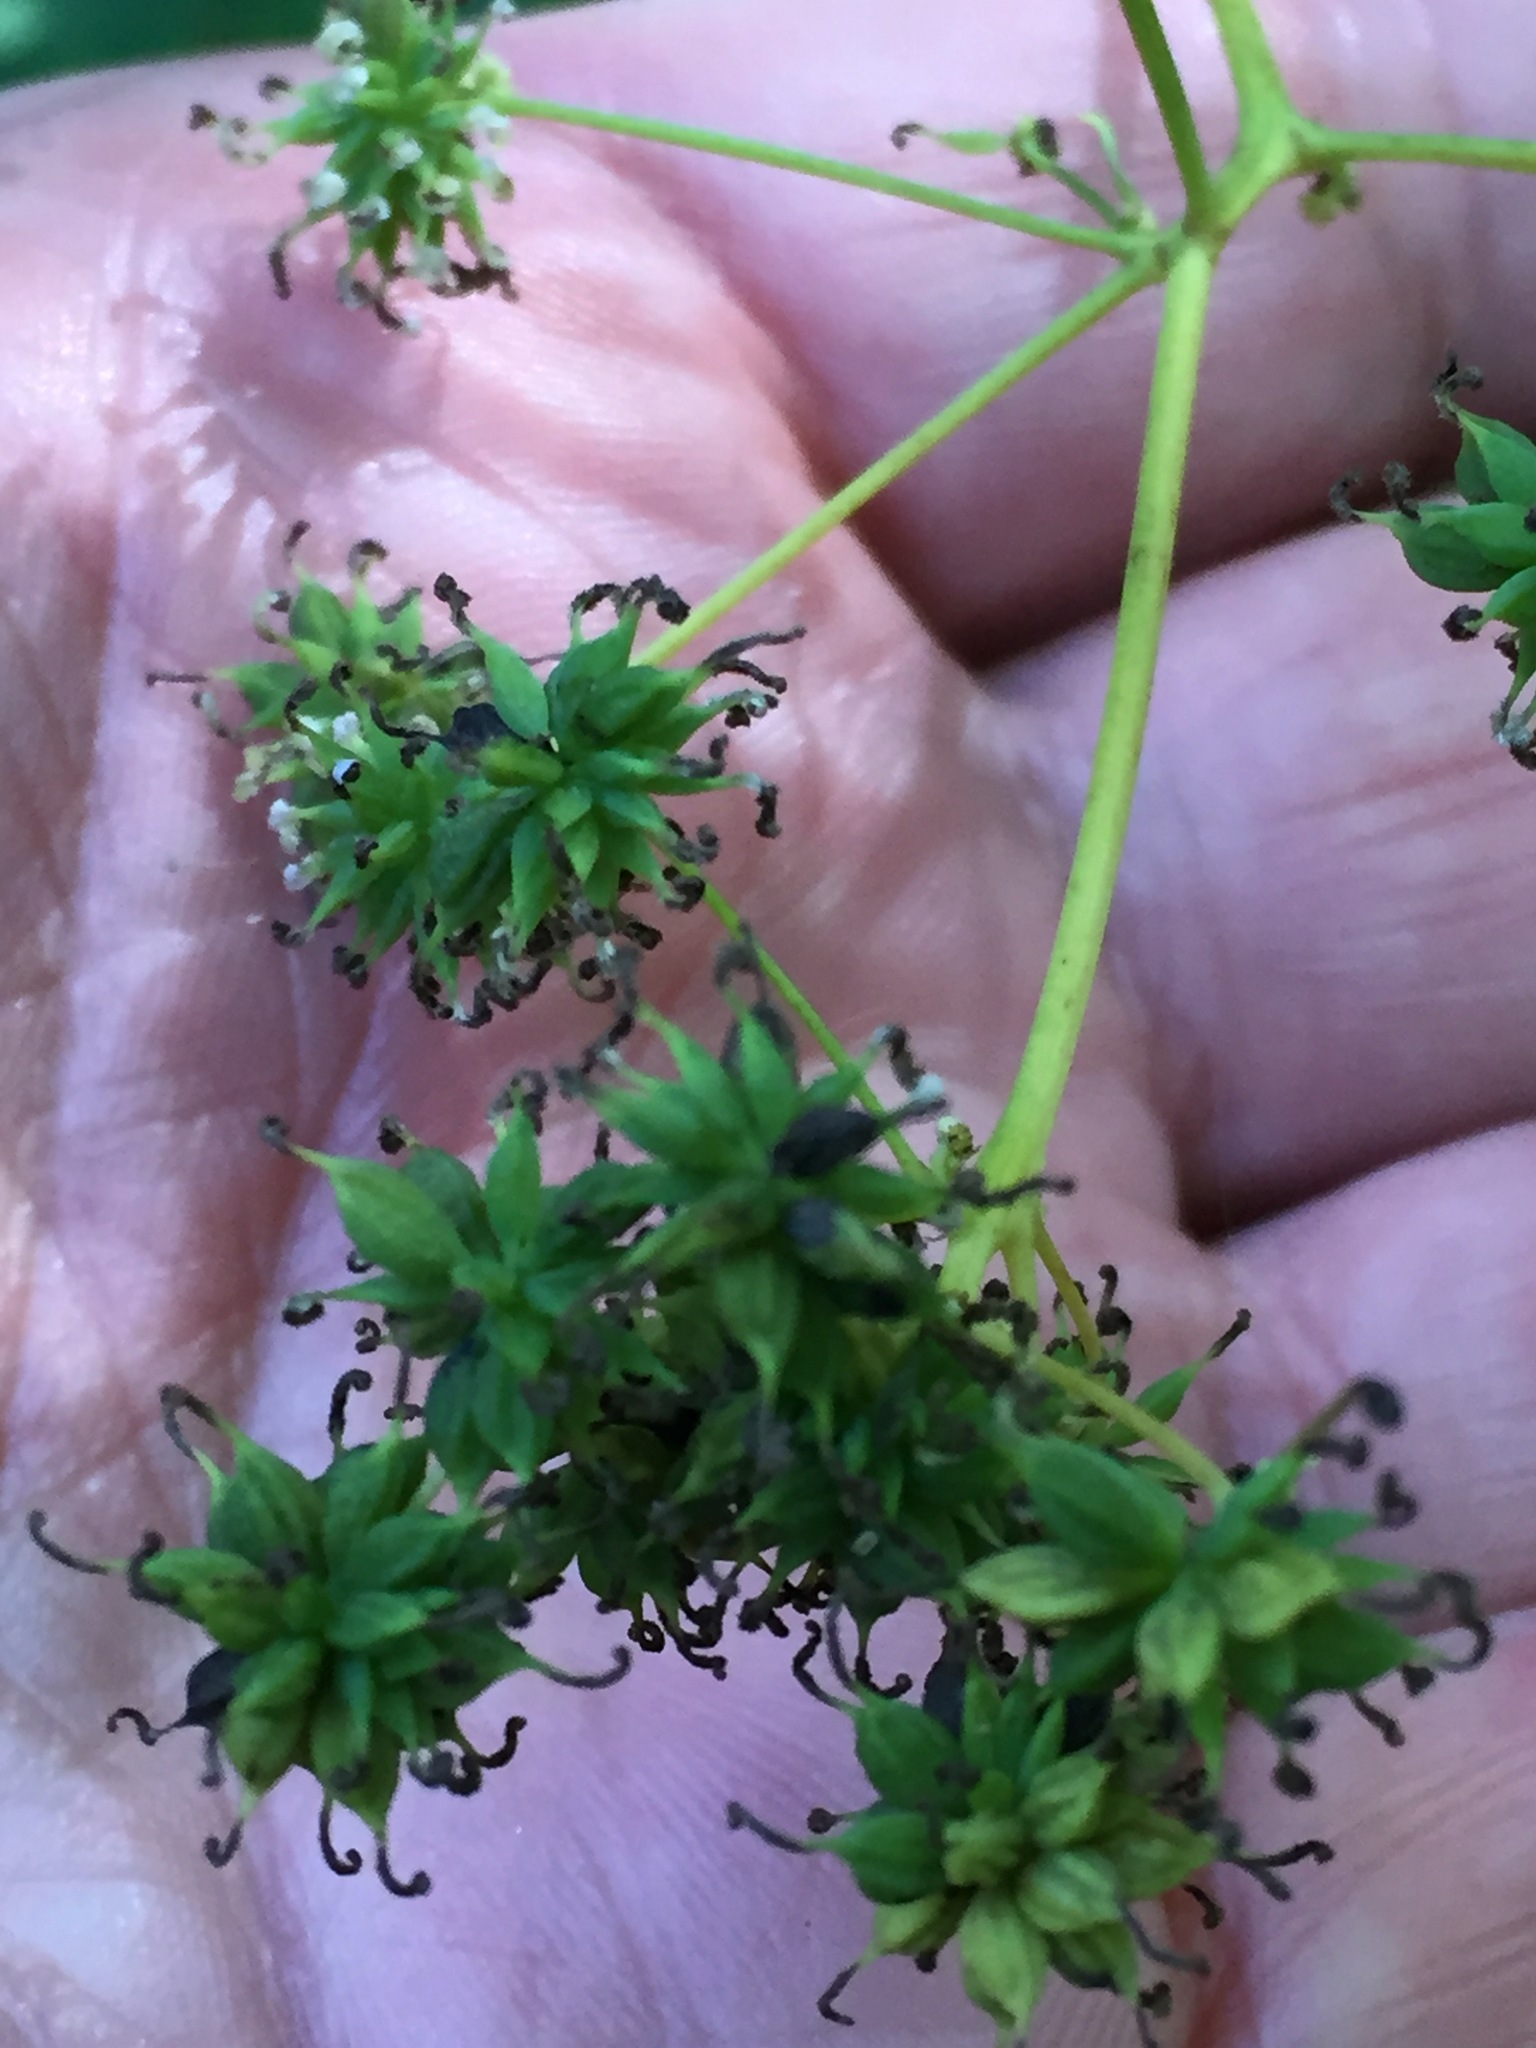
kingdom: Plantae
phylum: Tracheophyta
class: Magnoliopsida
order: Ranunculales
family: Ranunculaceae
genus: Thalictrum
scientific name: Thalictrum pubescens
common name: King-of-the-meadow
